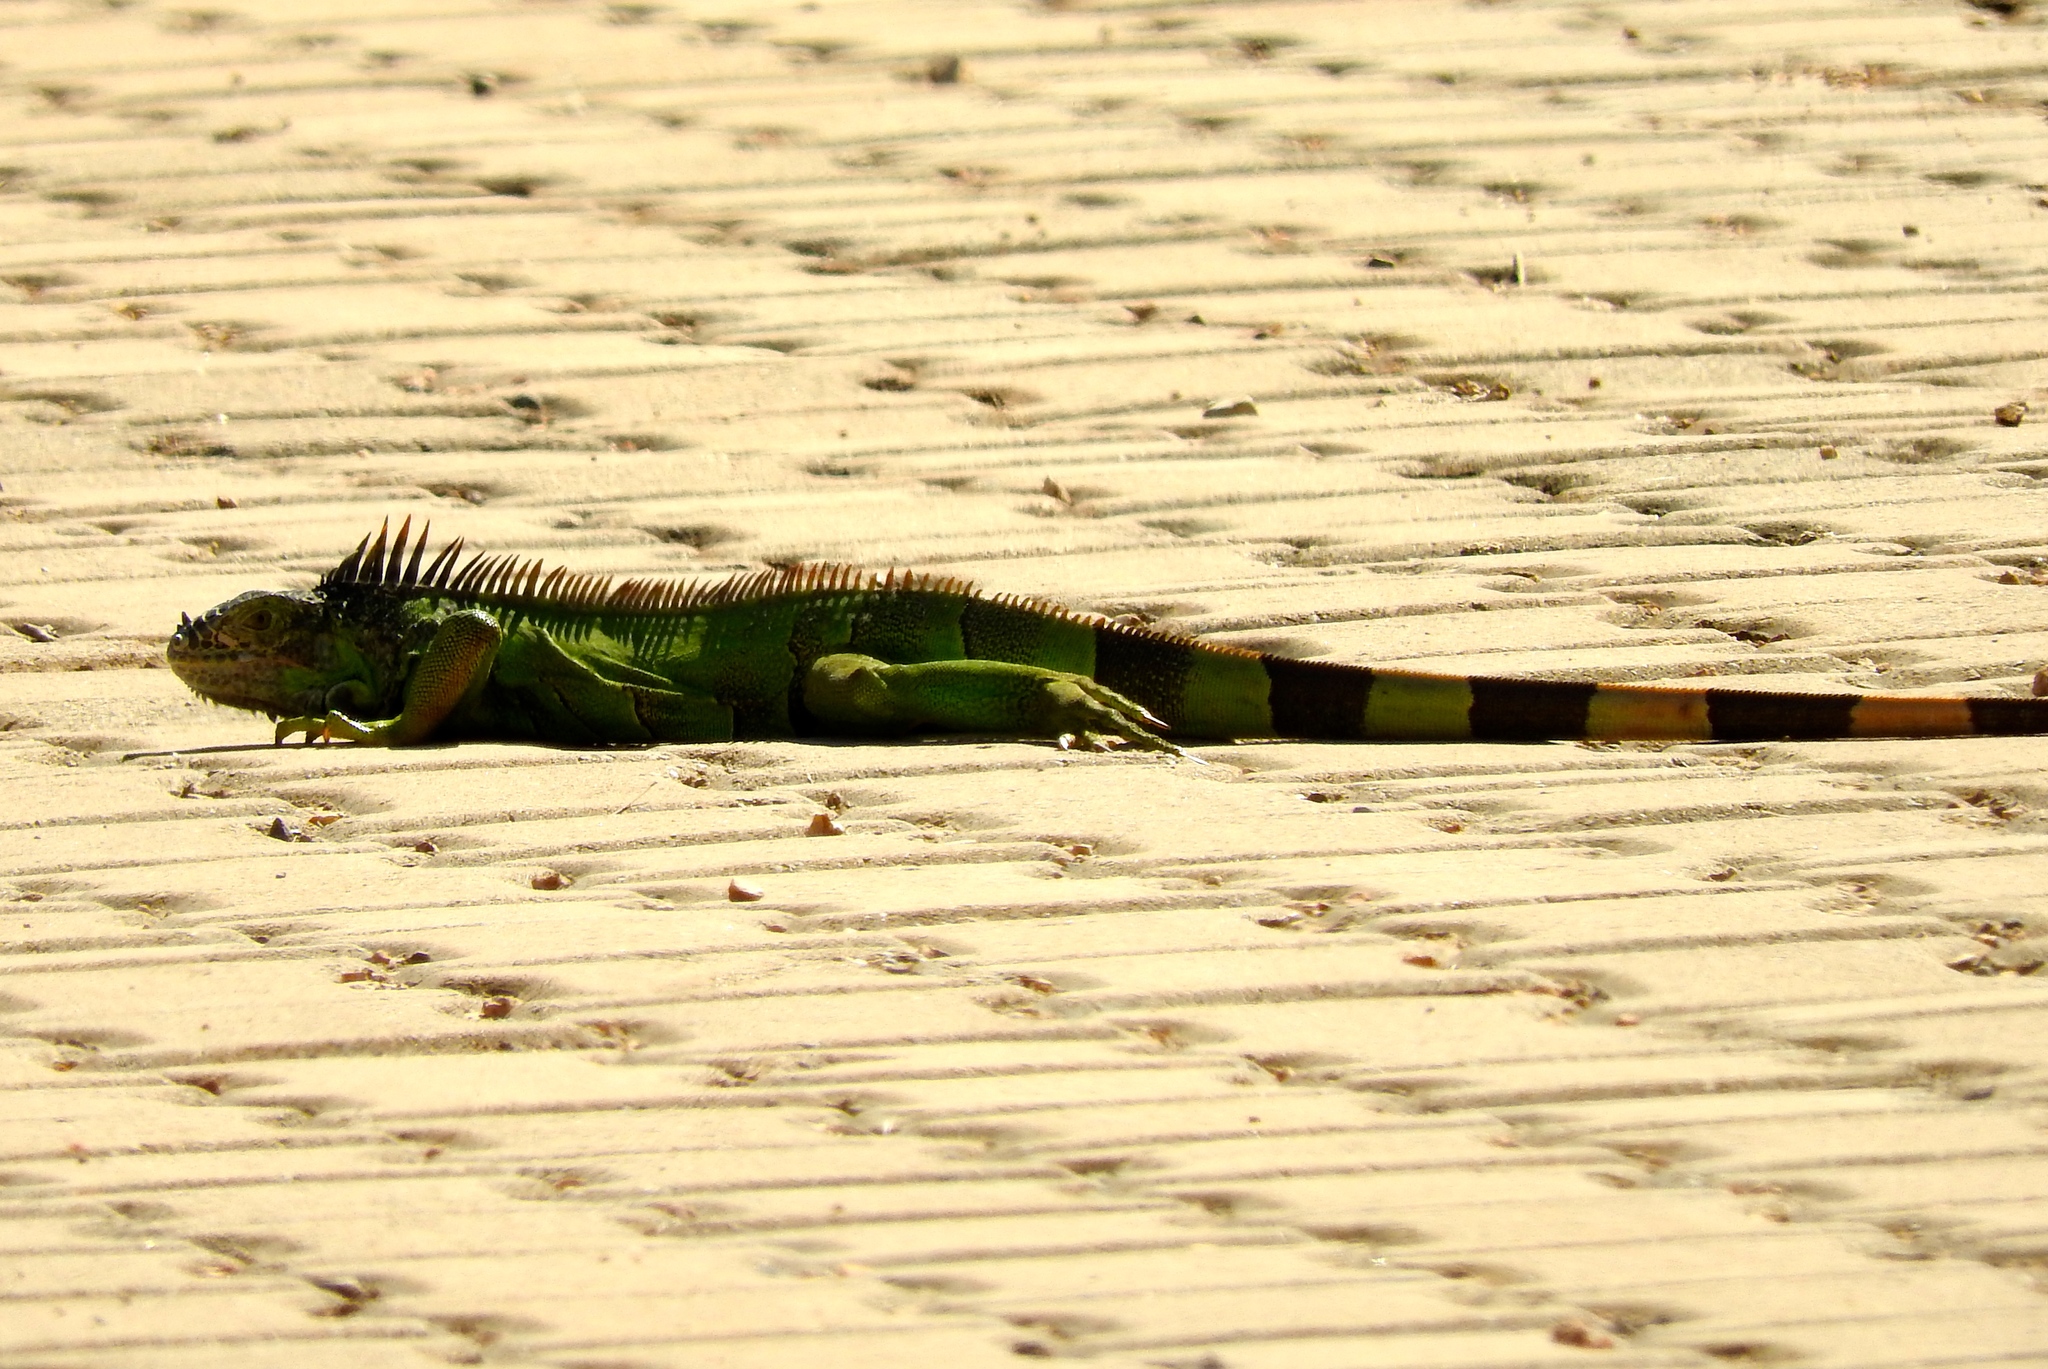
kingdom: Animalia
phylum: Chordata
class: Squamata
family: Iguanidae
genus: Iguana
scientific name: Iguana iguana
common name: Green iguana
